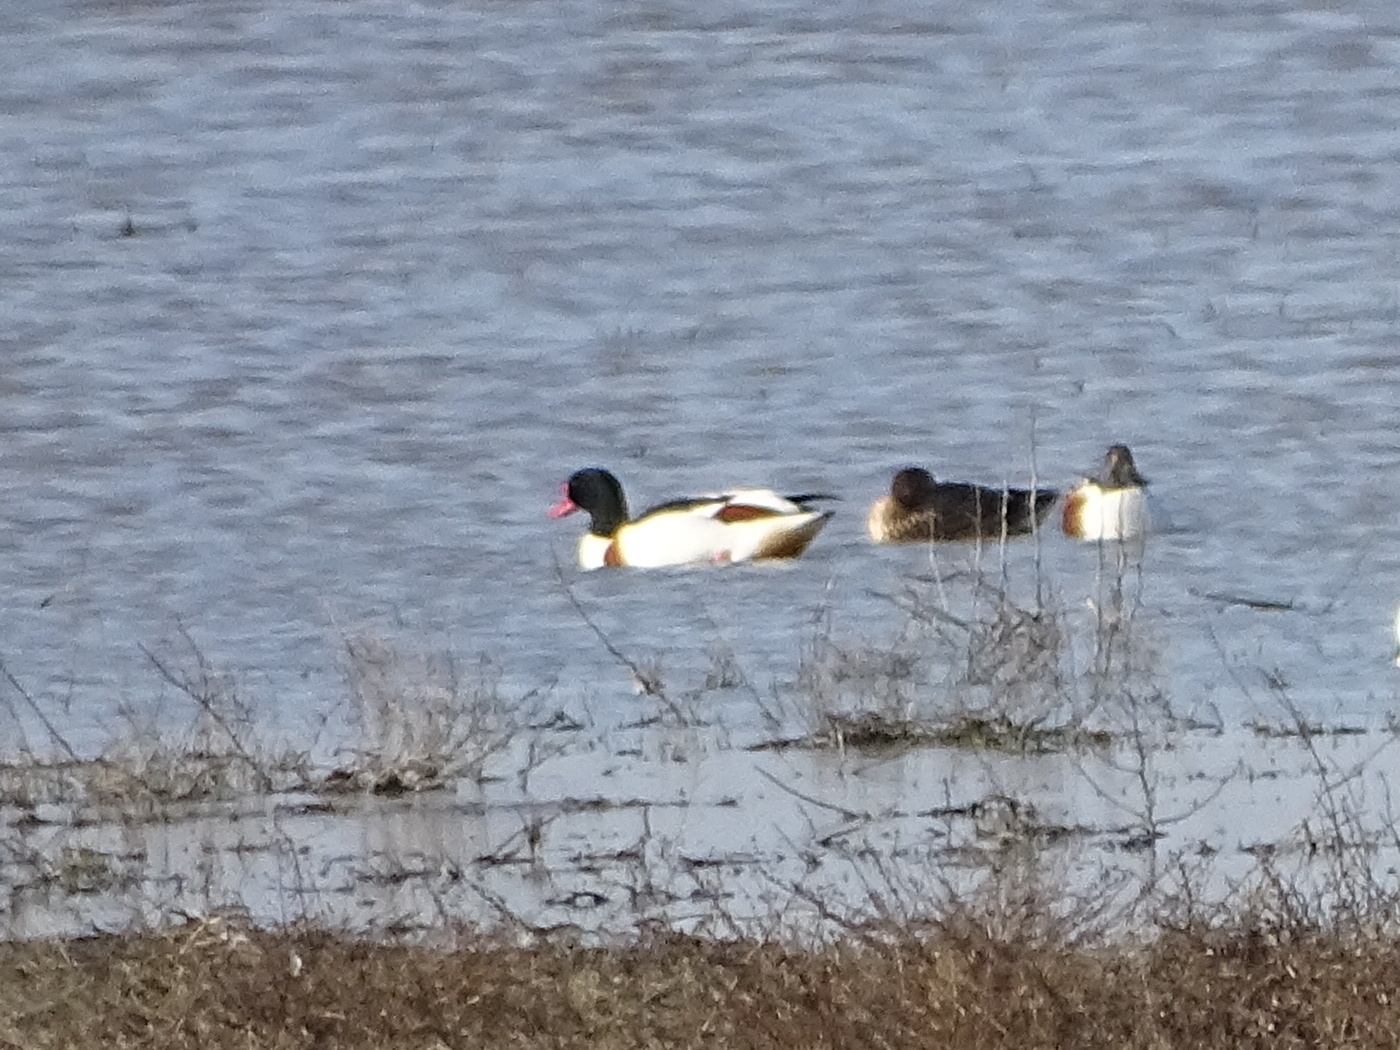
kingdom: Animalia
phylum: Chordata
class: Aves
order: Anseriformes
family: Anatidae
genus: Tadorna
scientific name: Tadorna tadorna
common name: Common shelduck
